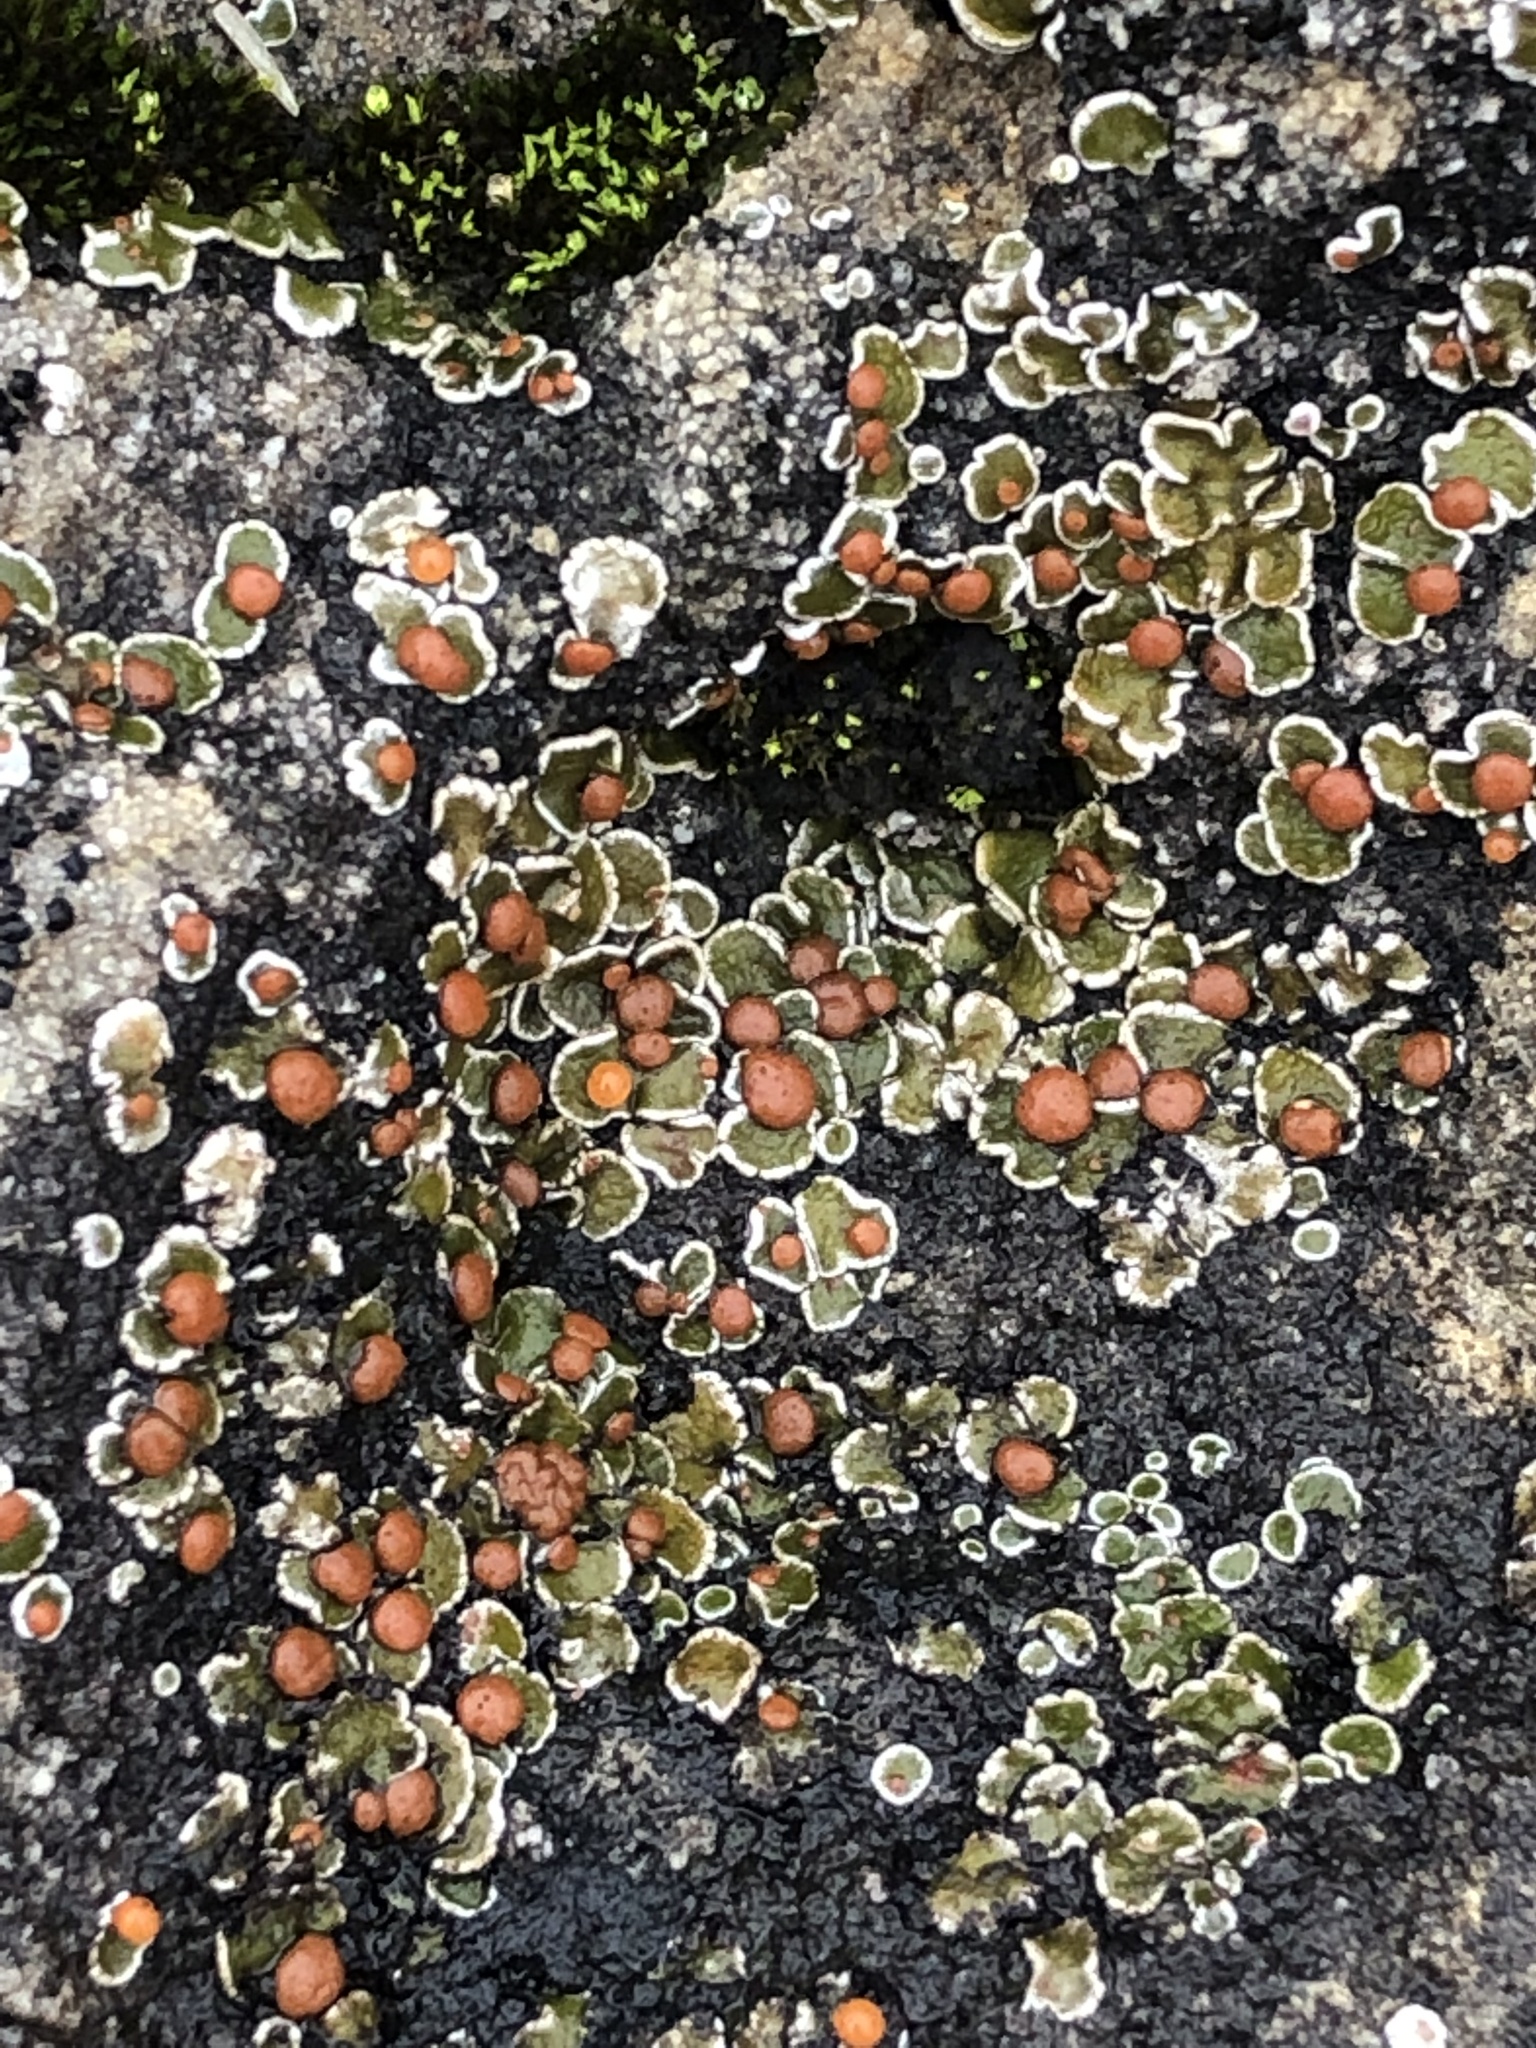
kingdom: Fungi
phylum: Ascomycota
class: Lecanoromycetes
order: Lecanorales
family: Psoraceae
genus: Psora
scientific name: Psora pseudorussellii
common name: Bordered scale lichen
